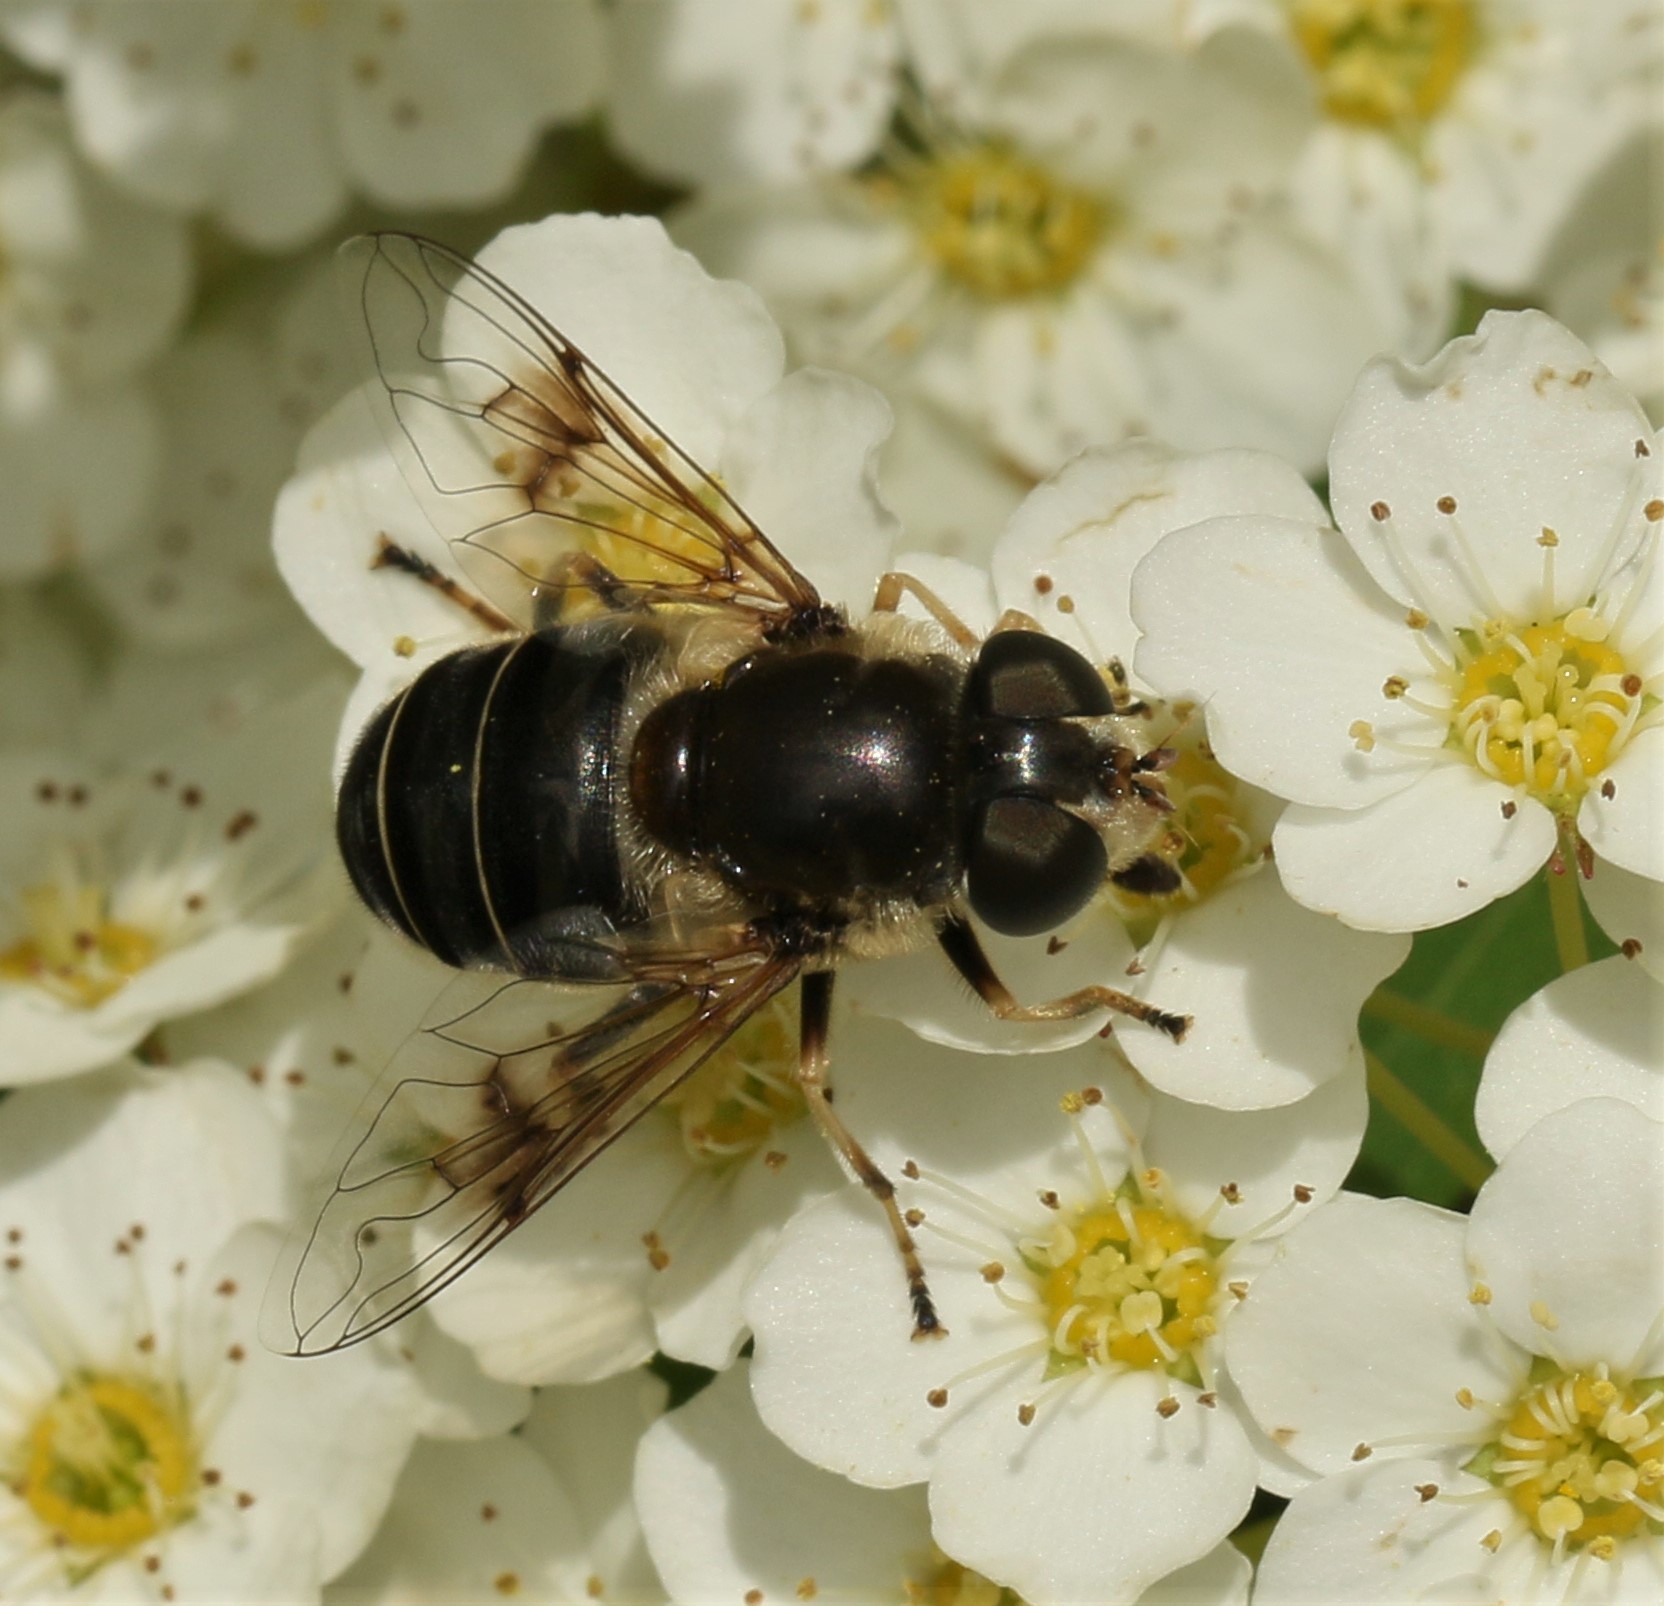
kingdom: Animalia
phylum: Arthropoda
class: Insecta
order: Diptera
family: Syrphidae
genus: Eristalis
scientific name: Eristalis obscura
